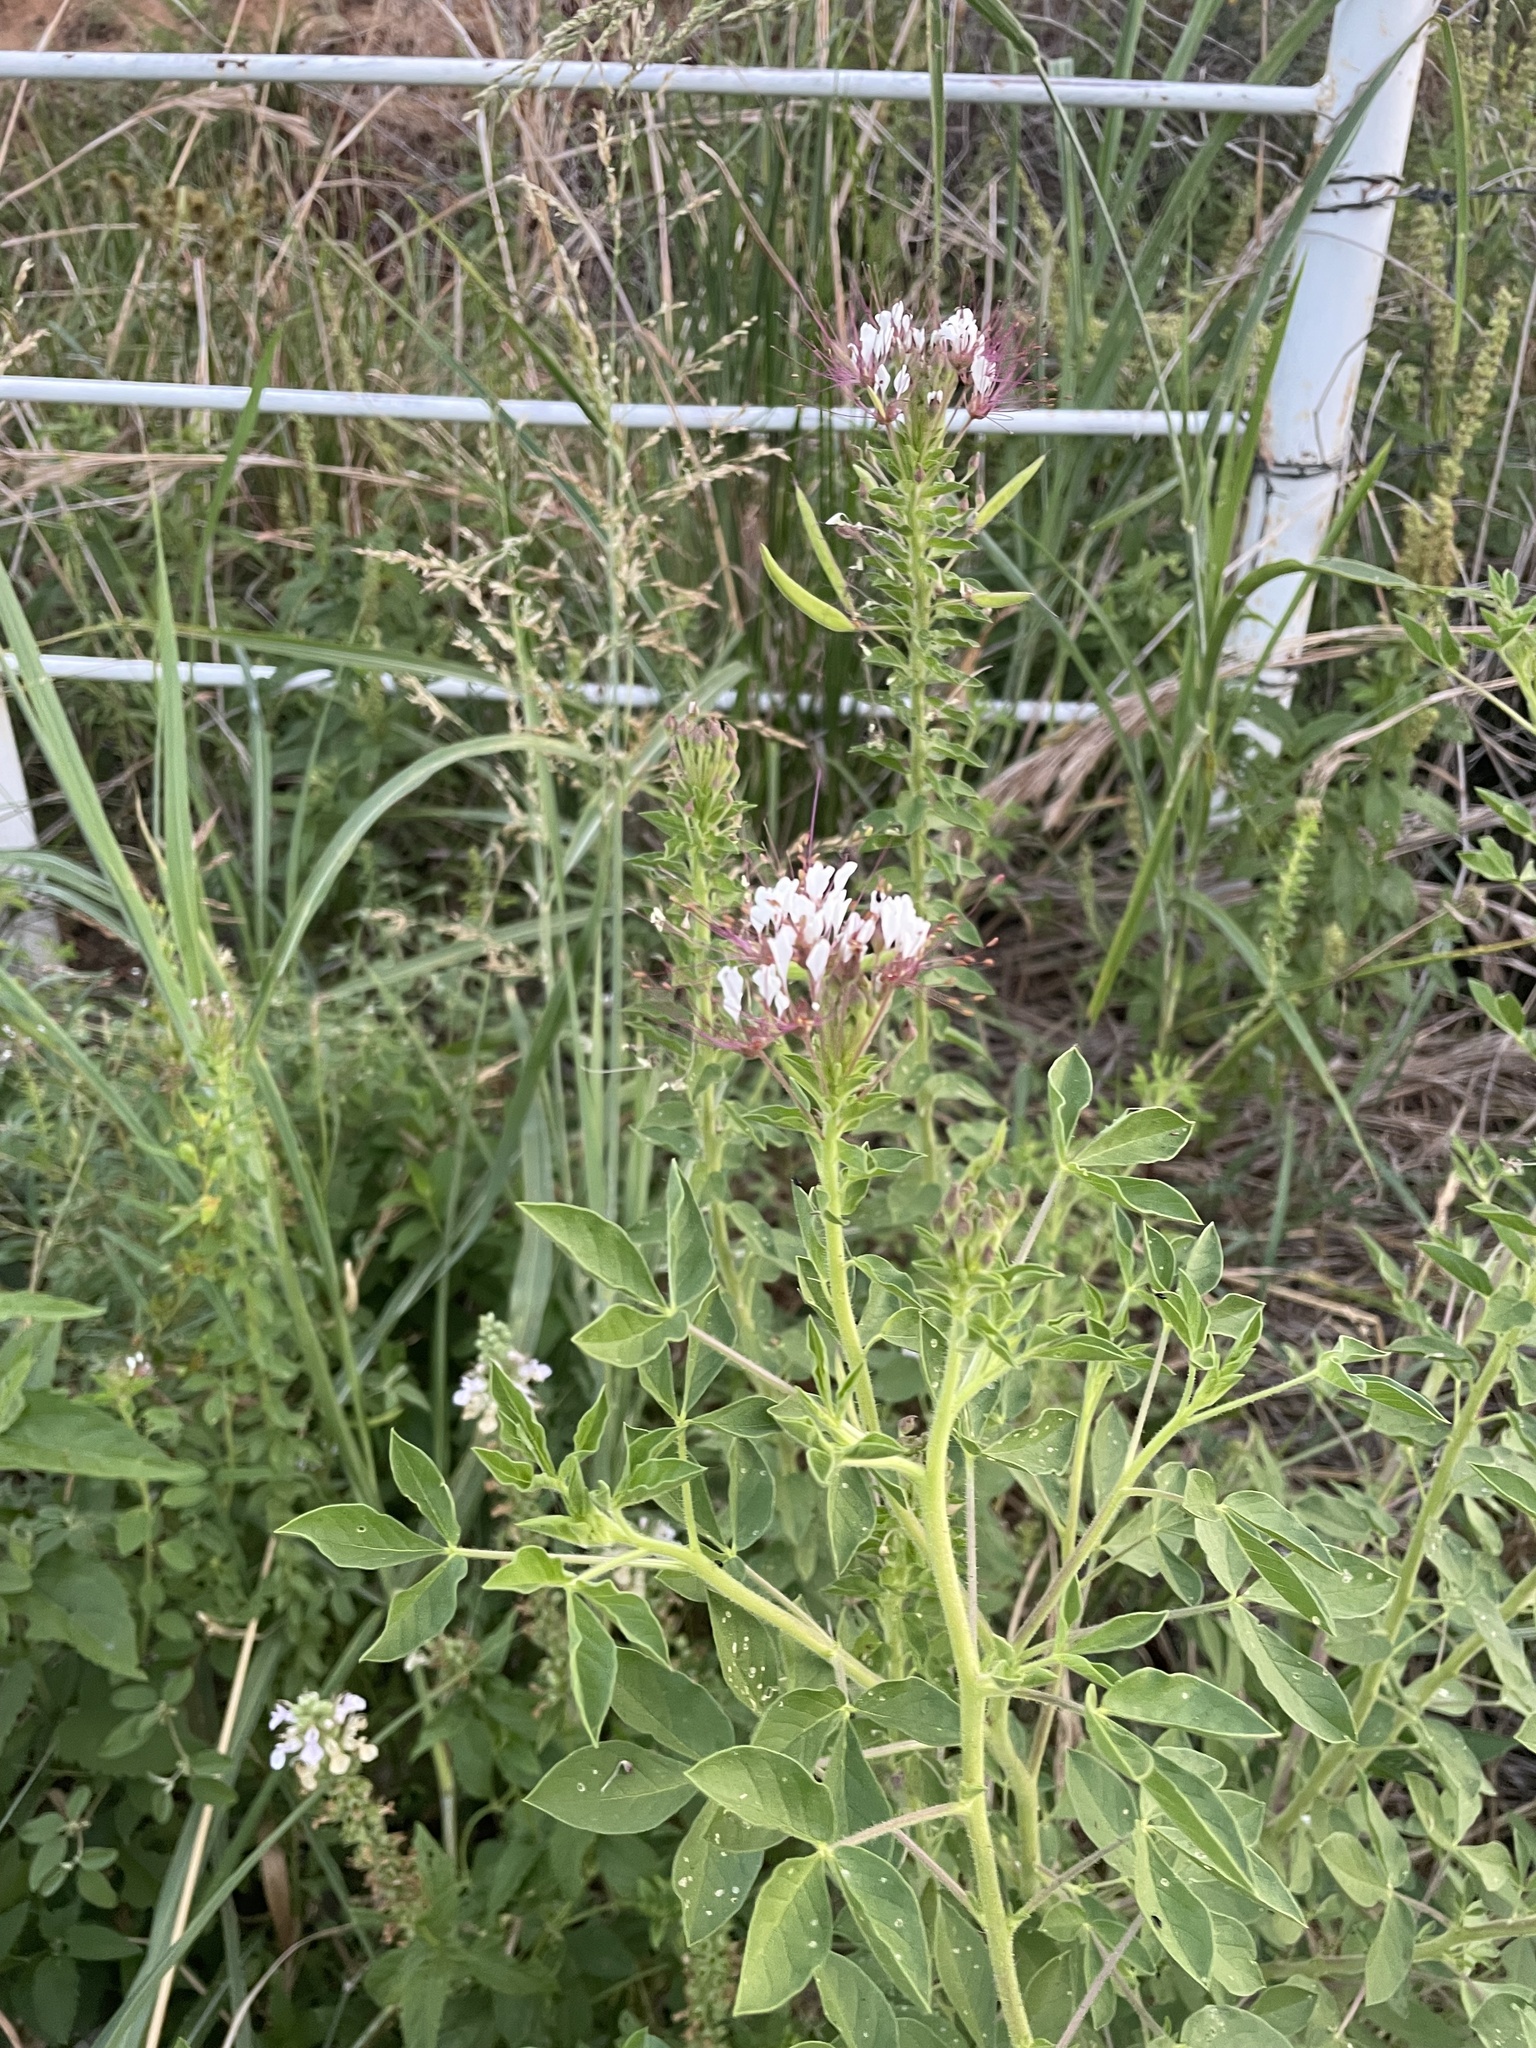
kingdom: Plantae
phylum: Tracheophyta
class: Magnoliopsida
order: Brassicales
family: Cleomaceae
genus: Polanisia
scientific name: Polanisia dodecandra
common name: Clammyweed
